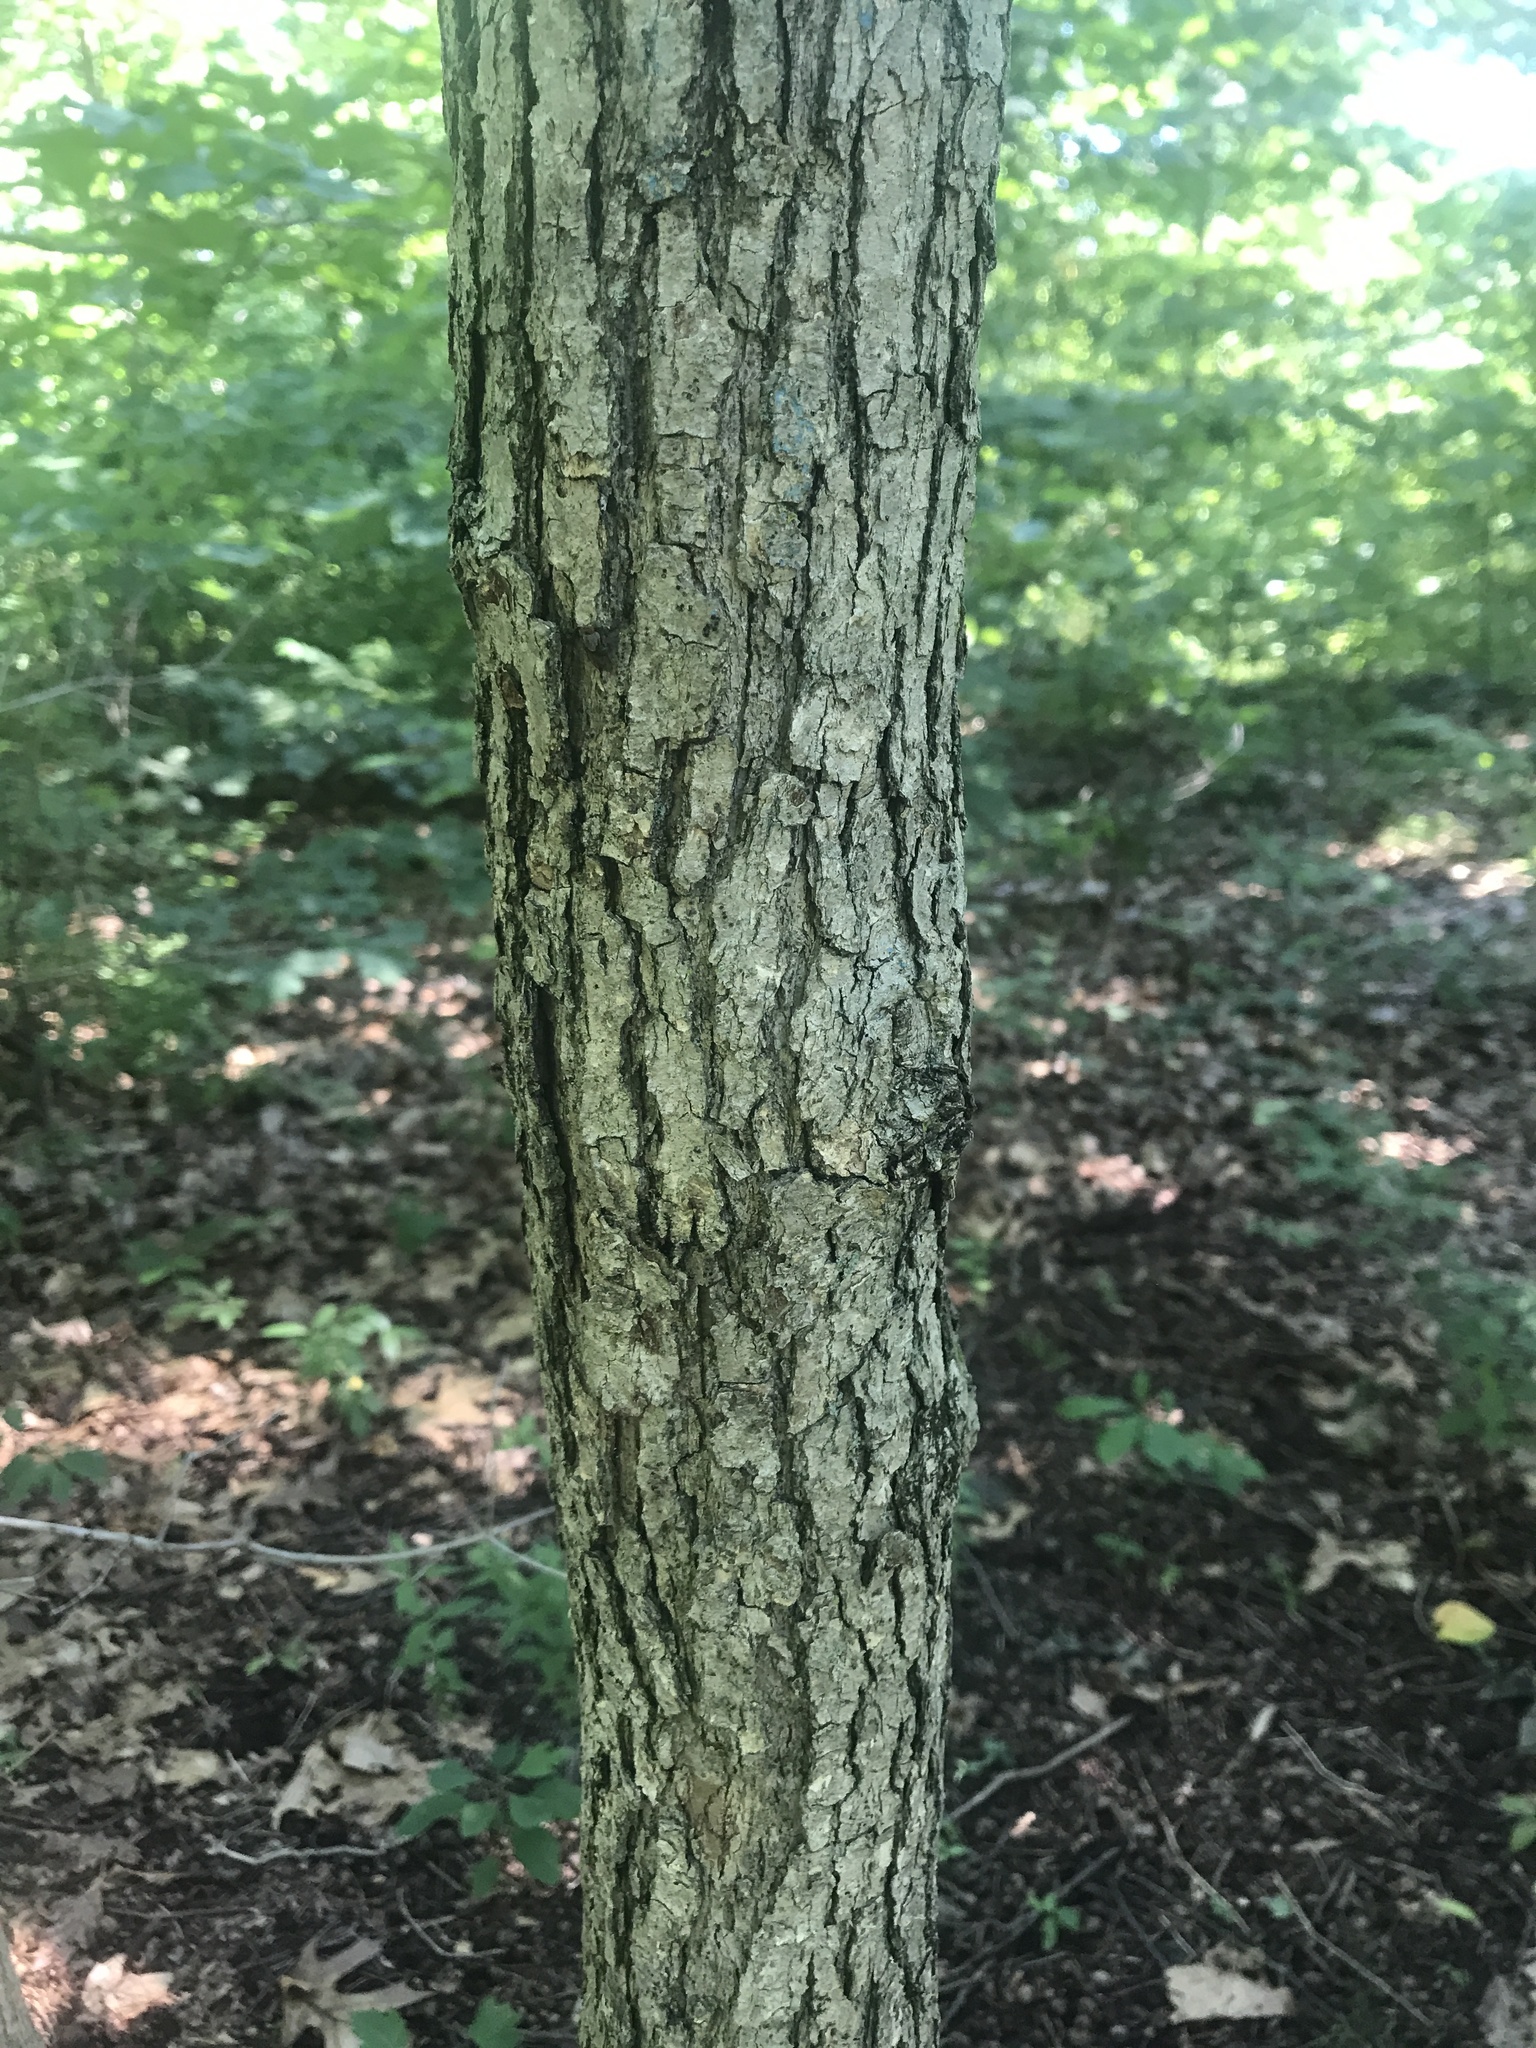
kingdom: Plantae
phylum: Tracheophyta
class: Magnoliopsida
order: Fagales
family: Fagaceae
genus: Quercus
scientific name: Quercus alba
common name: White oak
